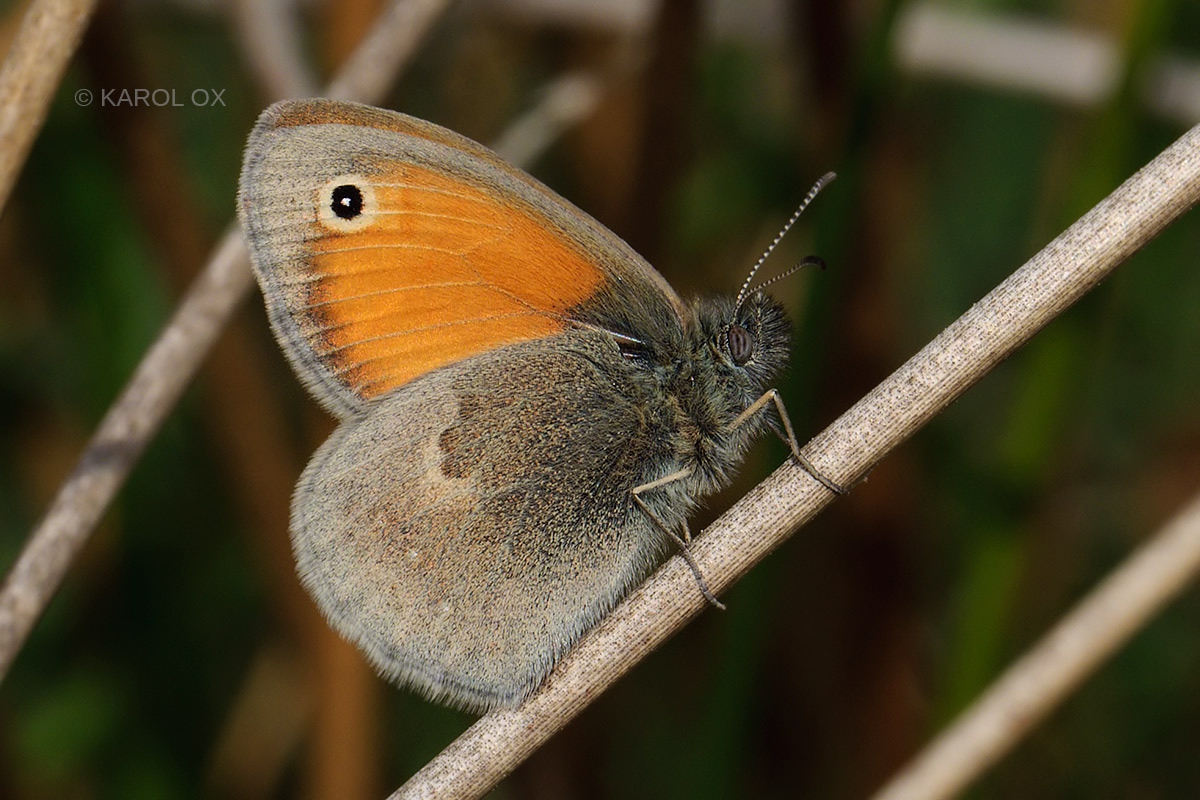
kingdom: Animalia
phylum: Arthropoda
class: Insecta
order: Lepidoptera
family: Nymphalidae
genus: Coenonympha
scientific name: Coenonympha pamphilus
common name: Small heath
